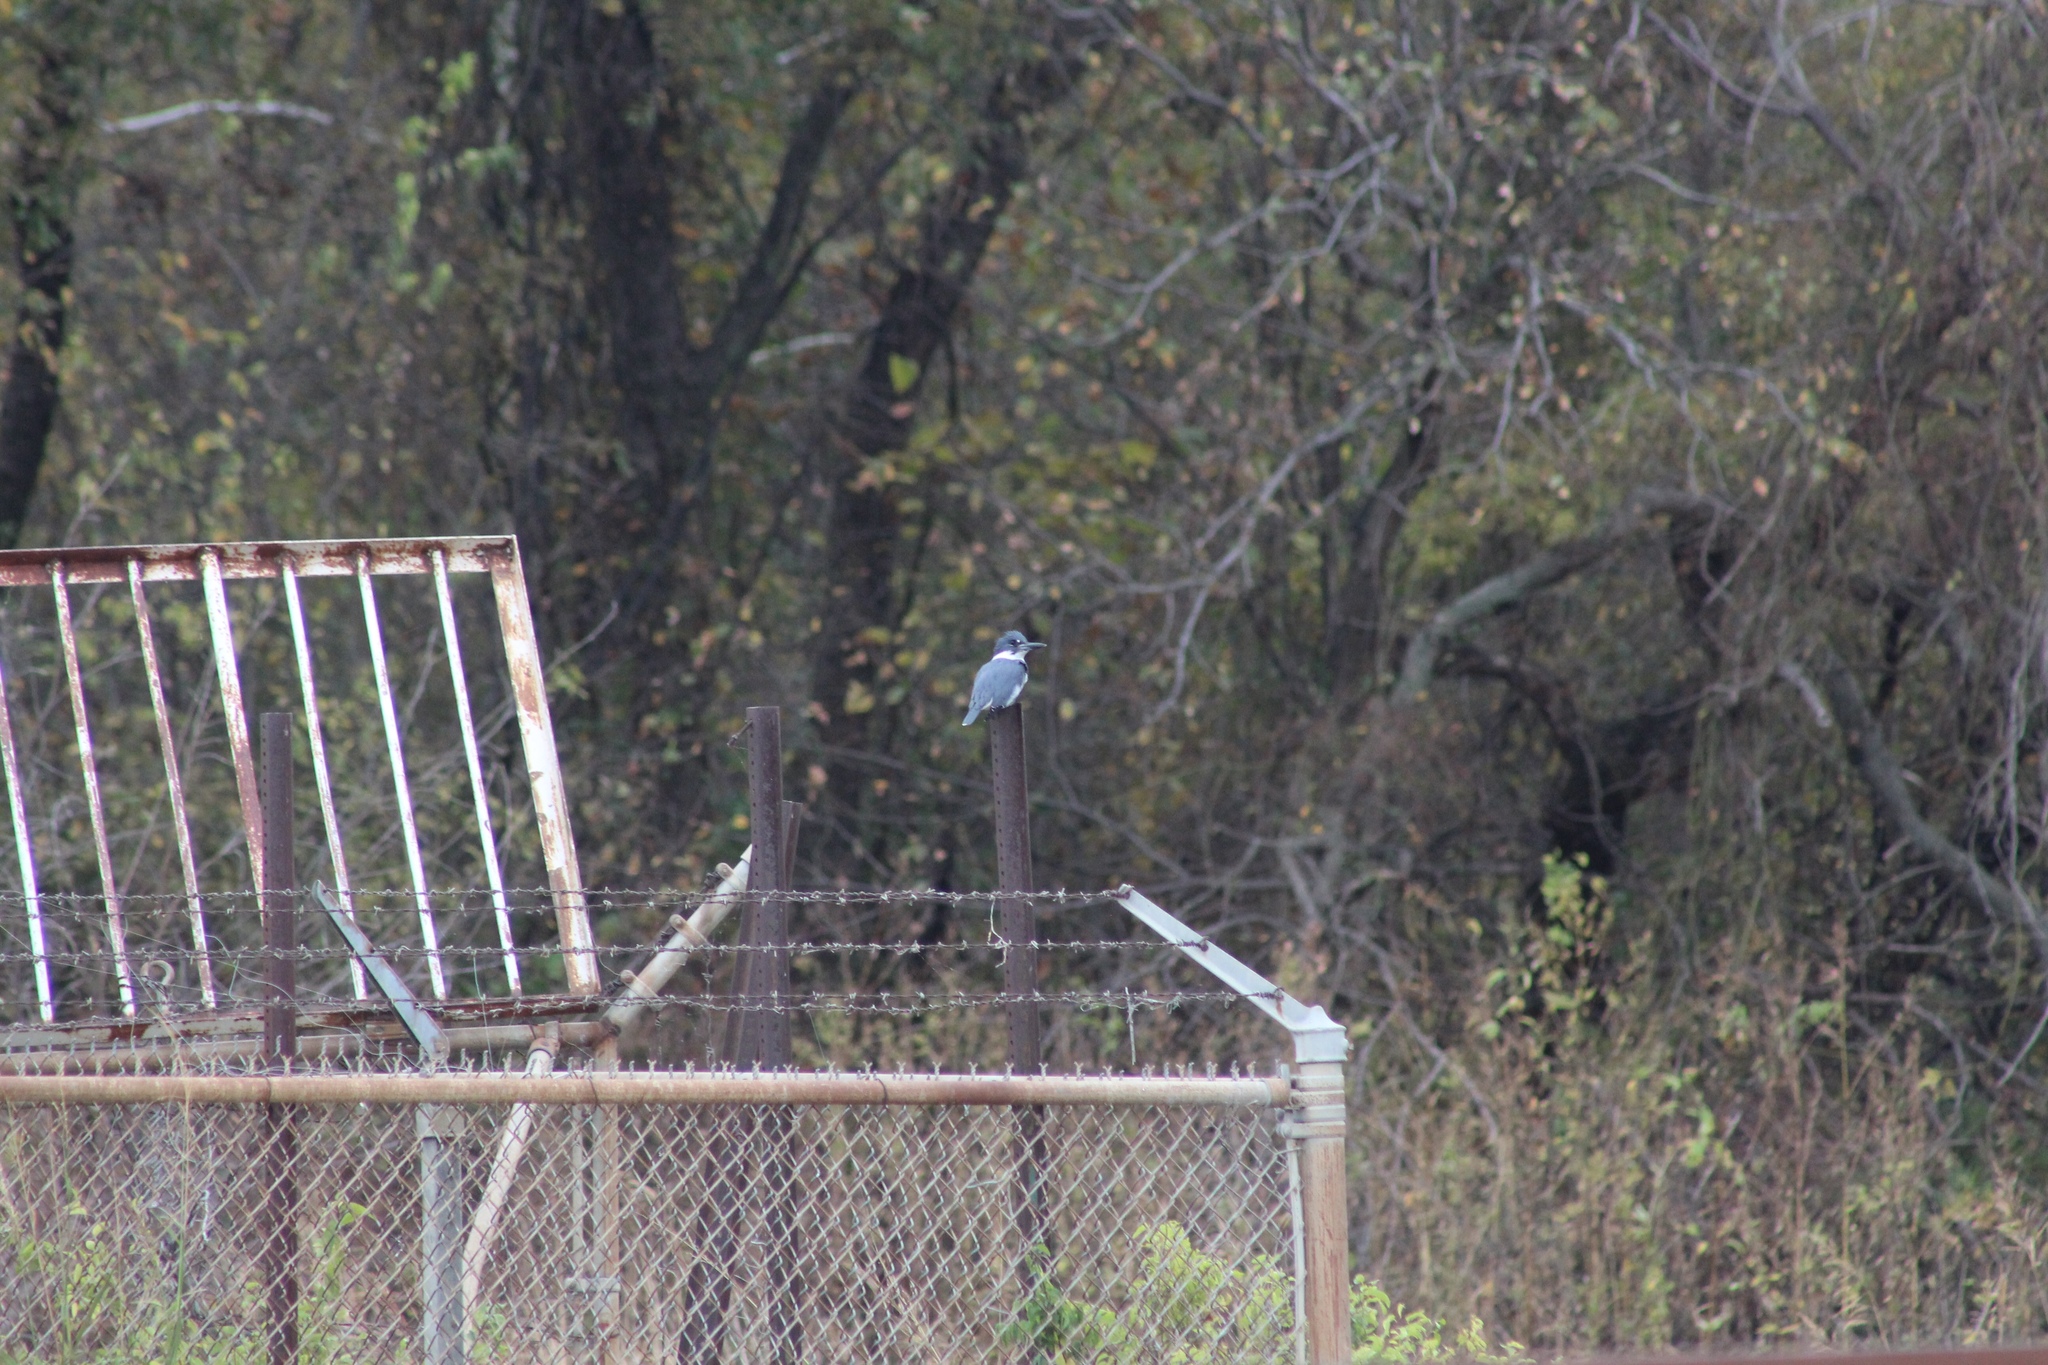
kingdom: Animalia
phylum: Chordata
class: Aves
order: Coraciiformes
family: Alcedinidae
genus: Megaceryle
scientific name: Megaceryle alcyon
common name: Belted kingfisher
